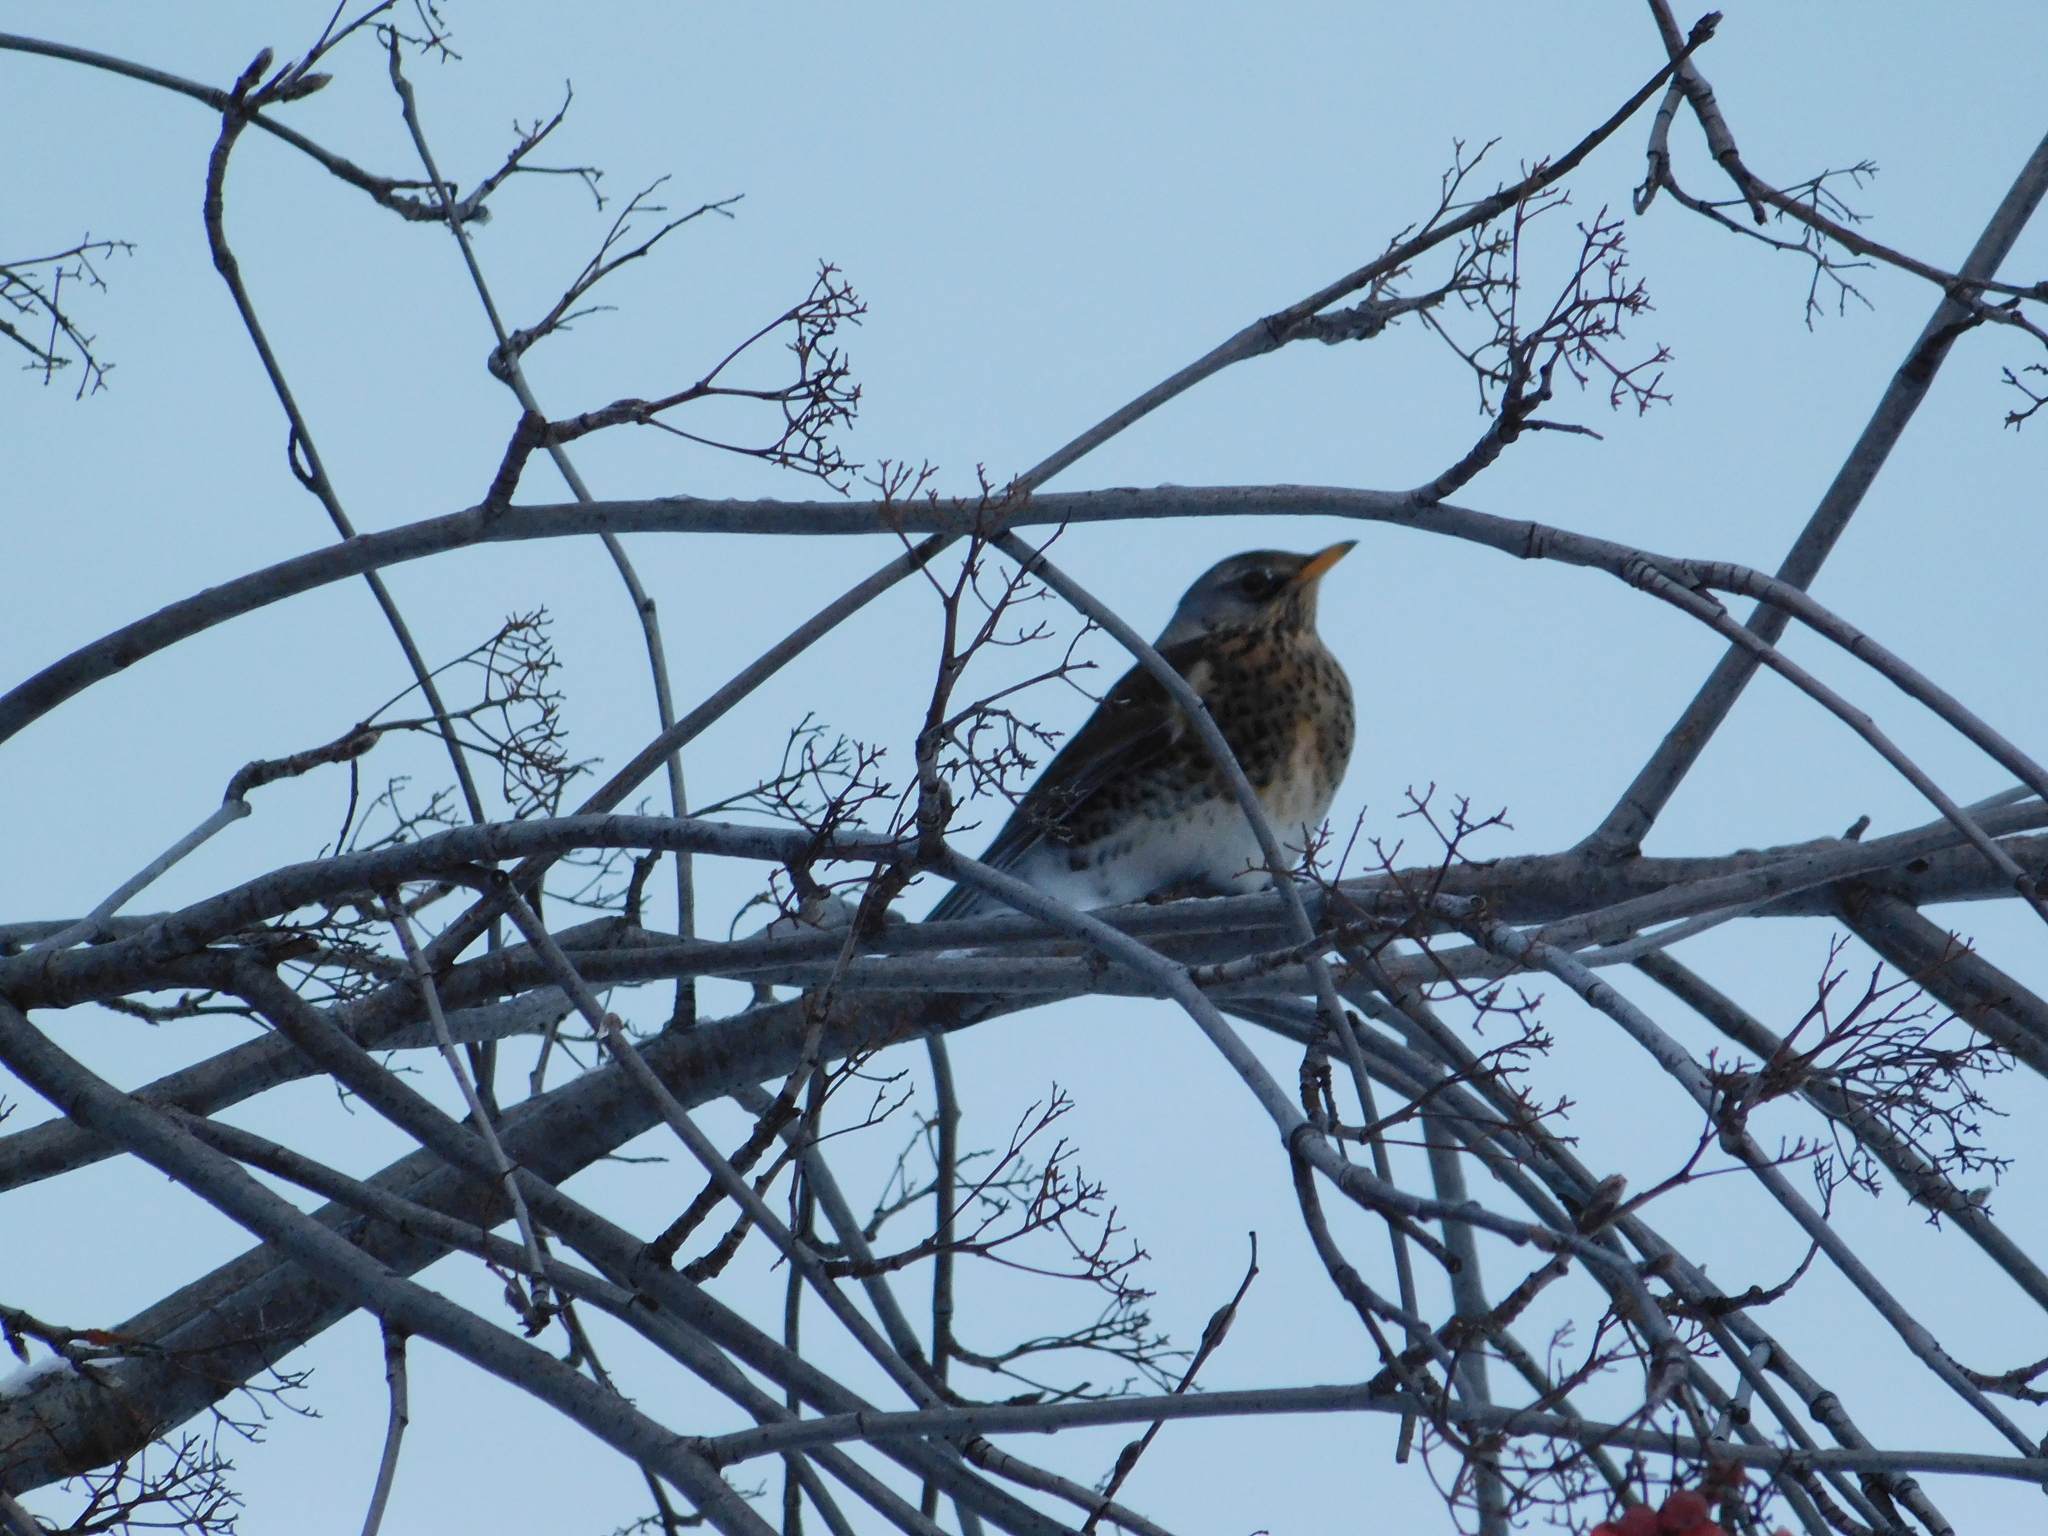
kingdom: Animalia
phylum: Chordata
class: Aves
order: Passeriformes
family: Turdidae
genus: Turdus
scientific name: Turdus pilaris
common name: Fieldfare
